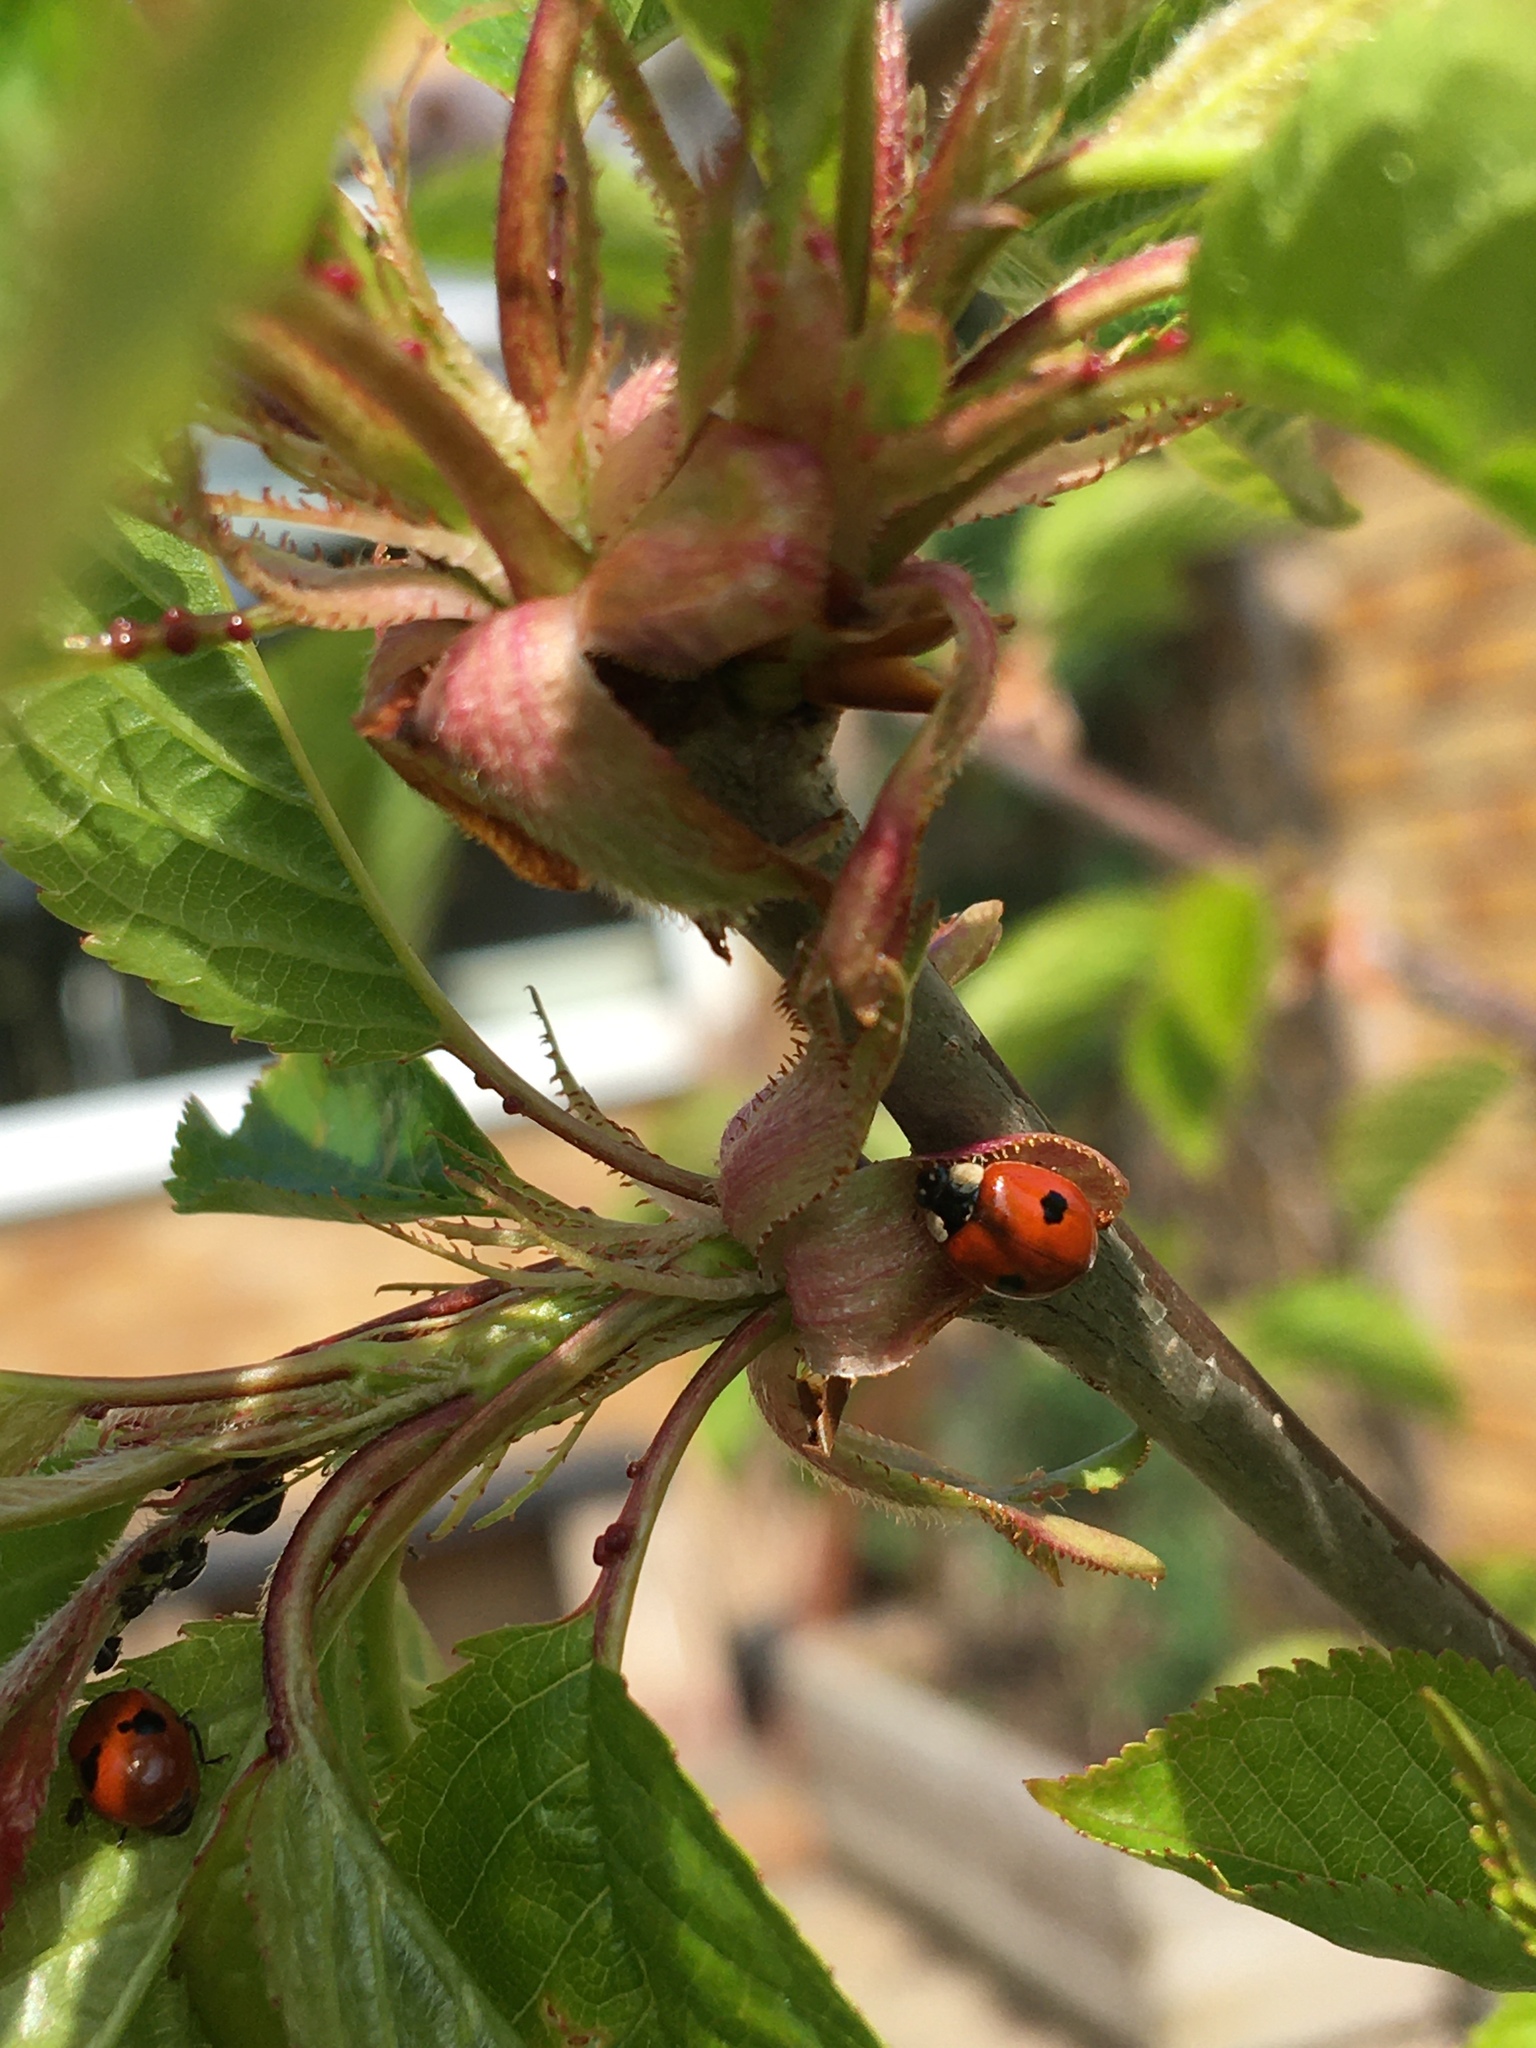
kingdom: Animalia
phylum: Arthropoda
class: Insecta
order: Coleoptera
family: Coccinellidae
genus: Adalia
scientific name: Adalia bipunctata
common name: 2-spot ladybird
